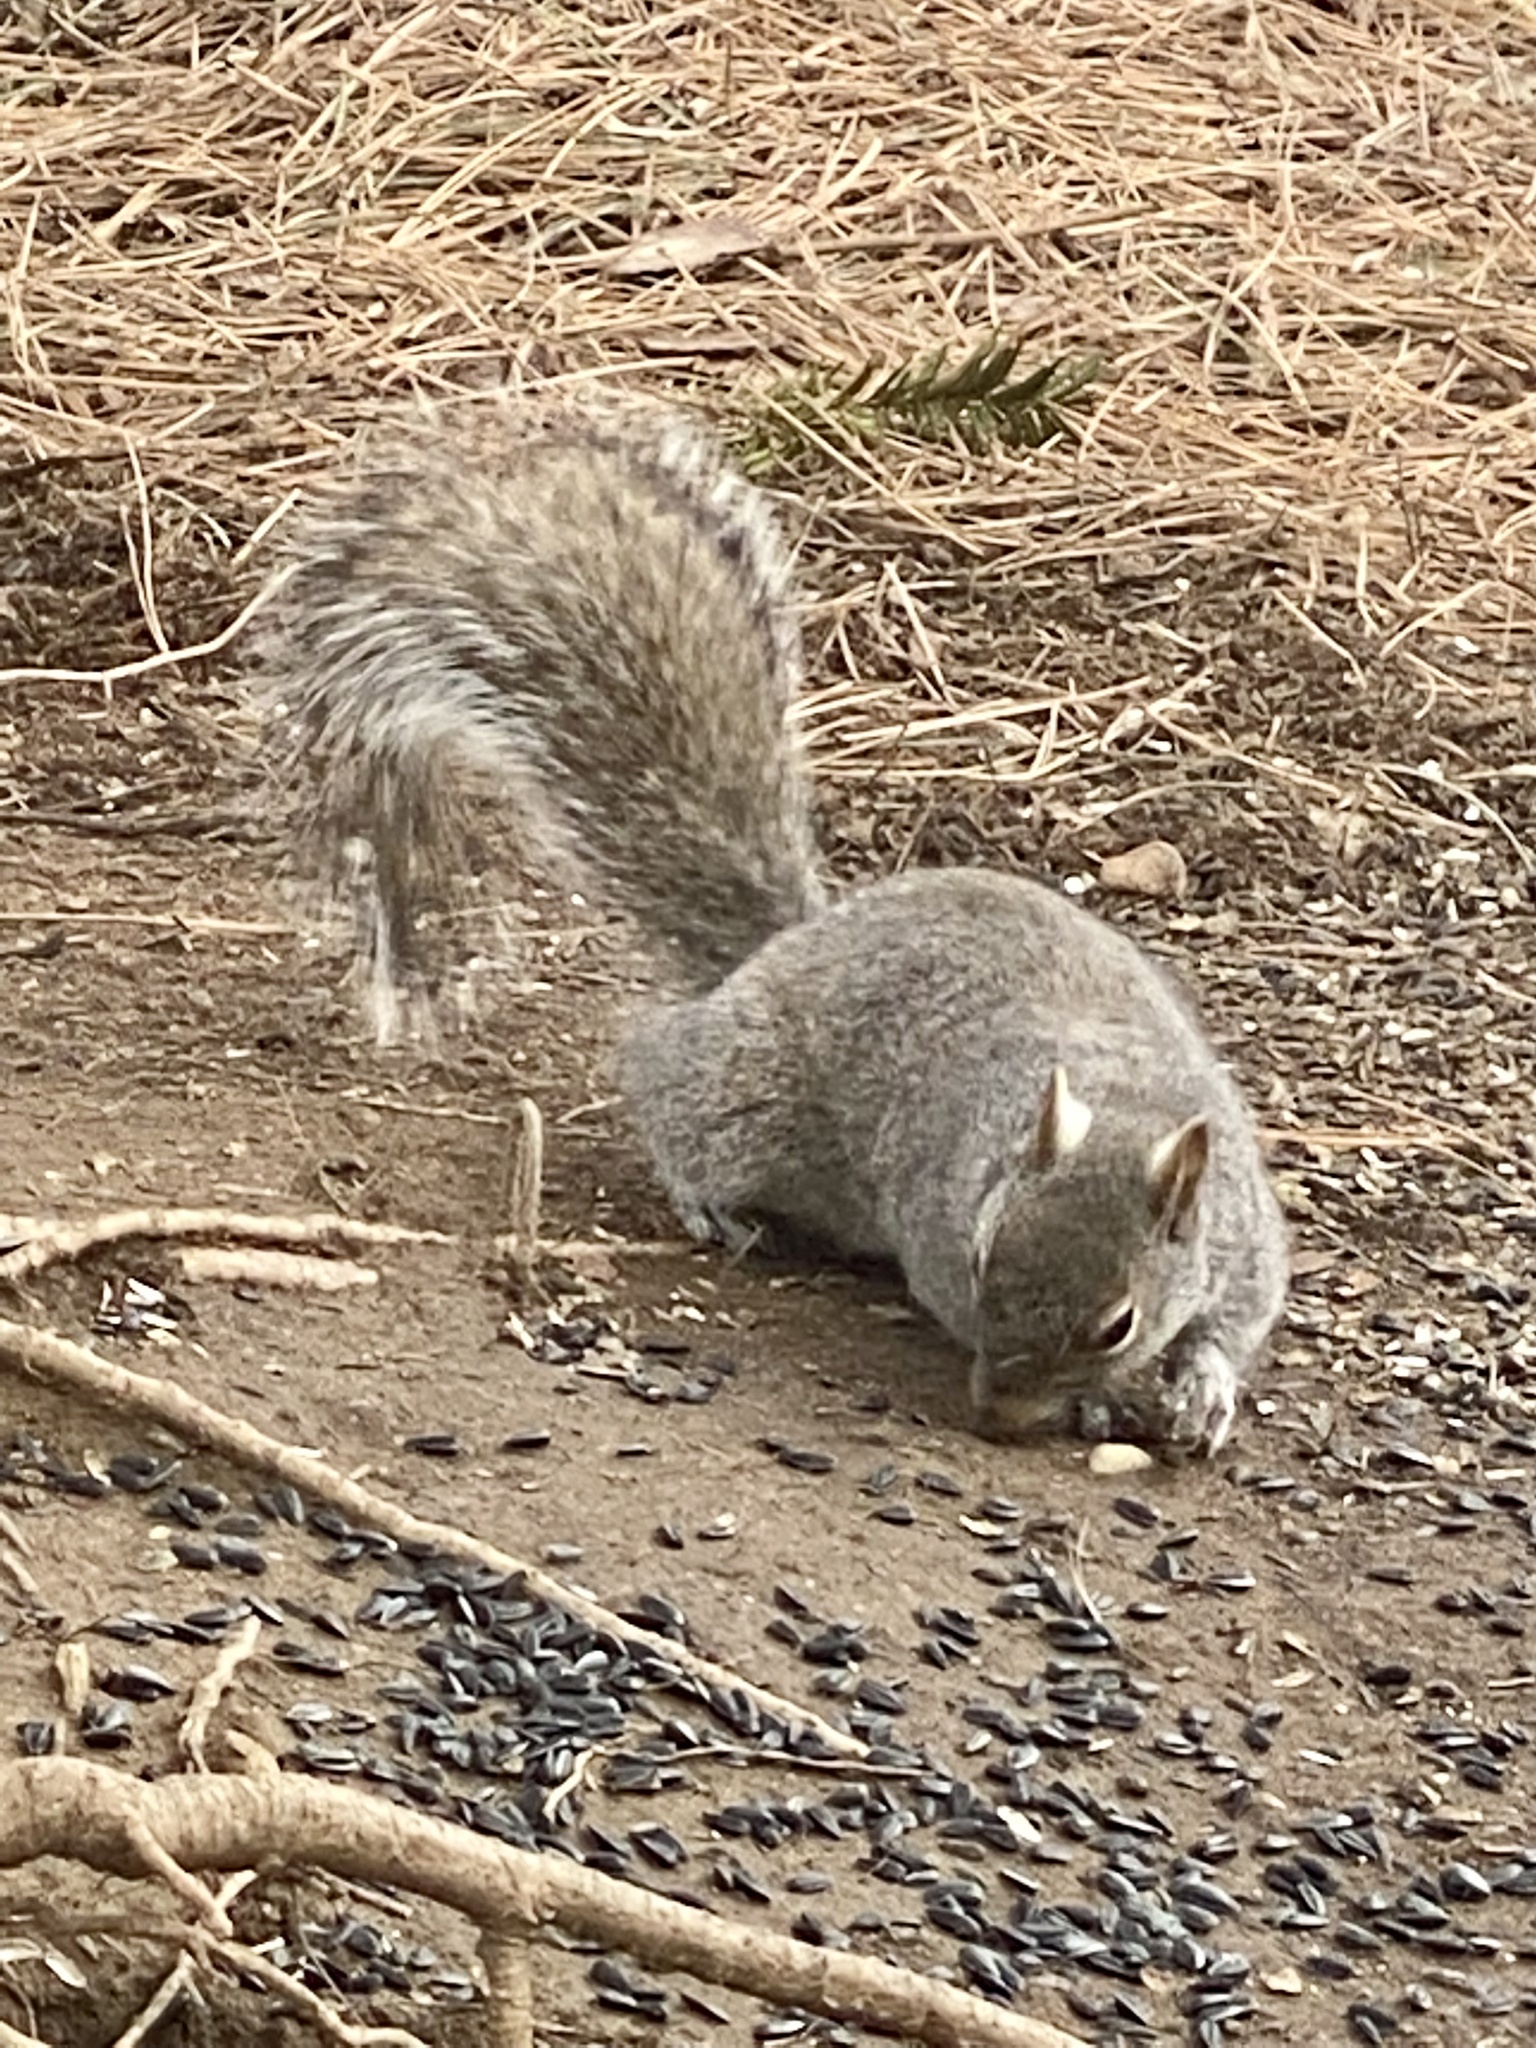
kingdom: Animalia
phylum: Chordata
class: Mammalia
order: Rodentia
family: Sciuridae
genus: Sciurus
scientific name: Sciurus carolinensis
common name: Eastern gray squirrel
